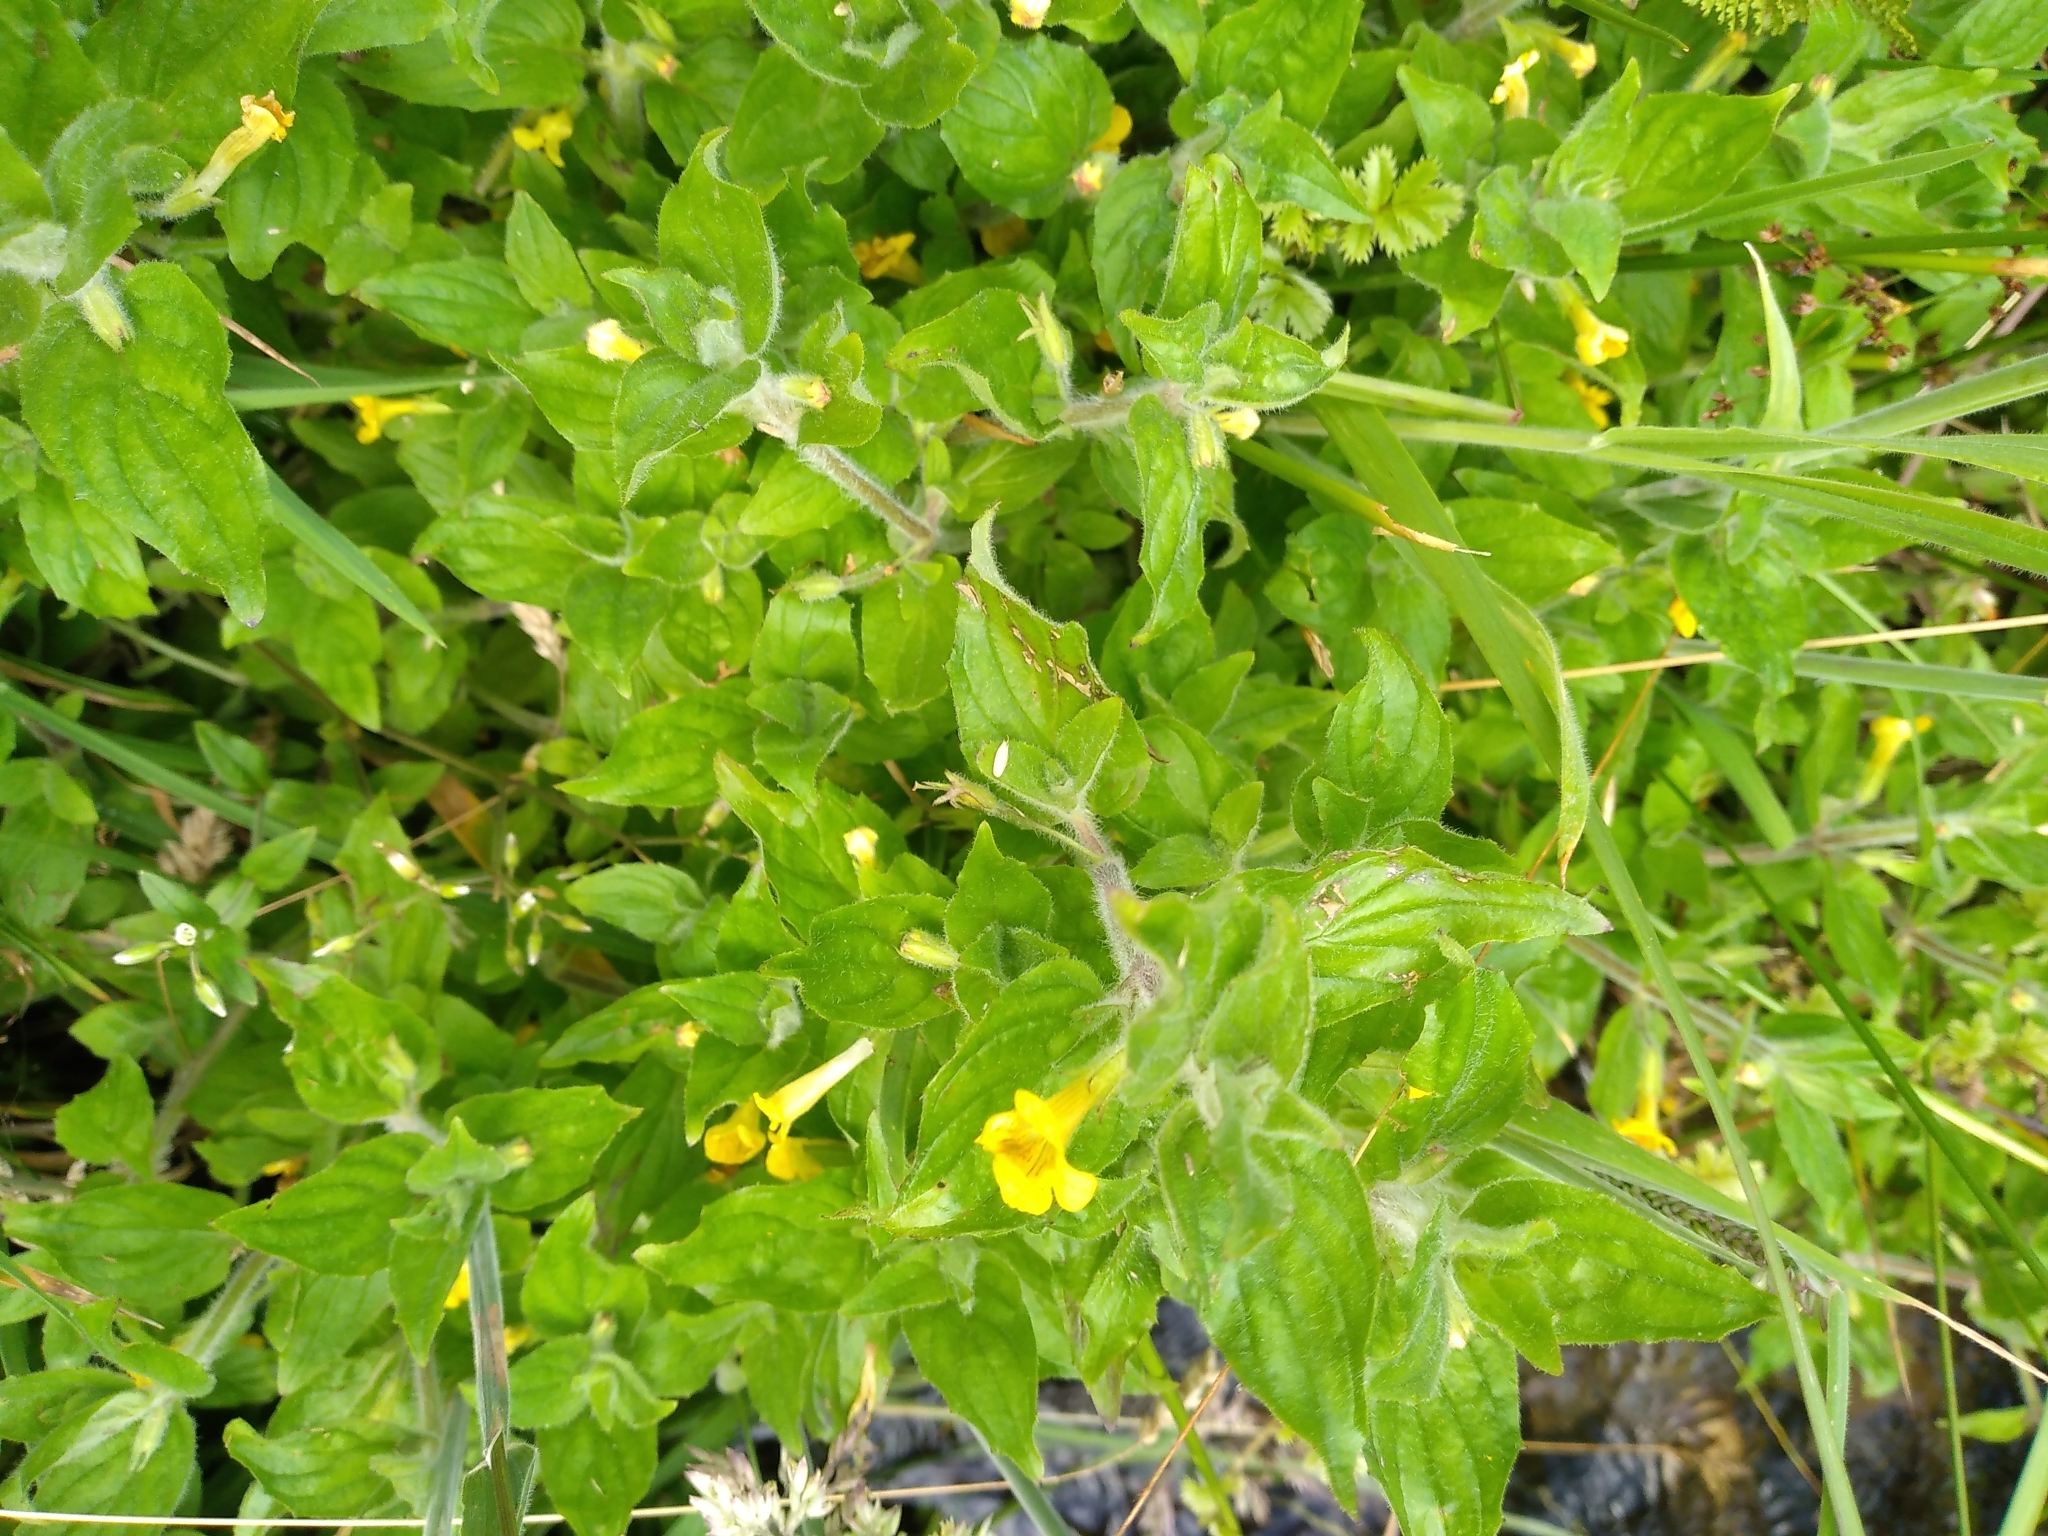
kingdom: Plantae
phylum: Tracheophyta
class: Magnoliopsida
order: Lamiales
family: Phrymaceae
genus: Erythranthe
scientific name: Erythranthe moschata
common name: Muskflower
